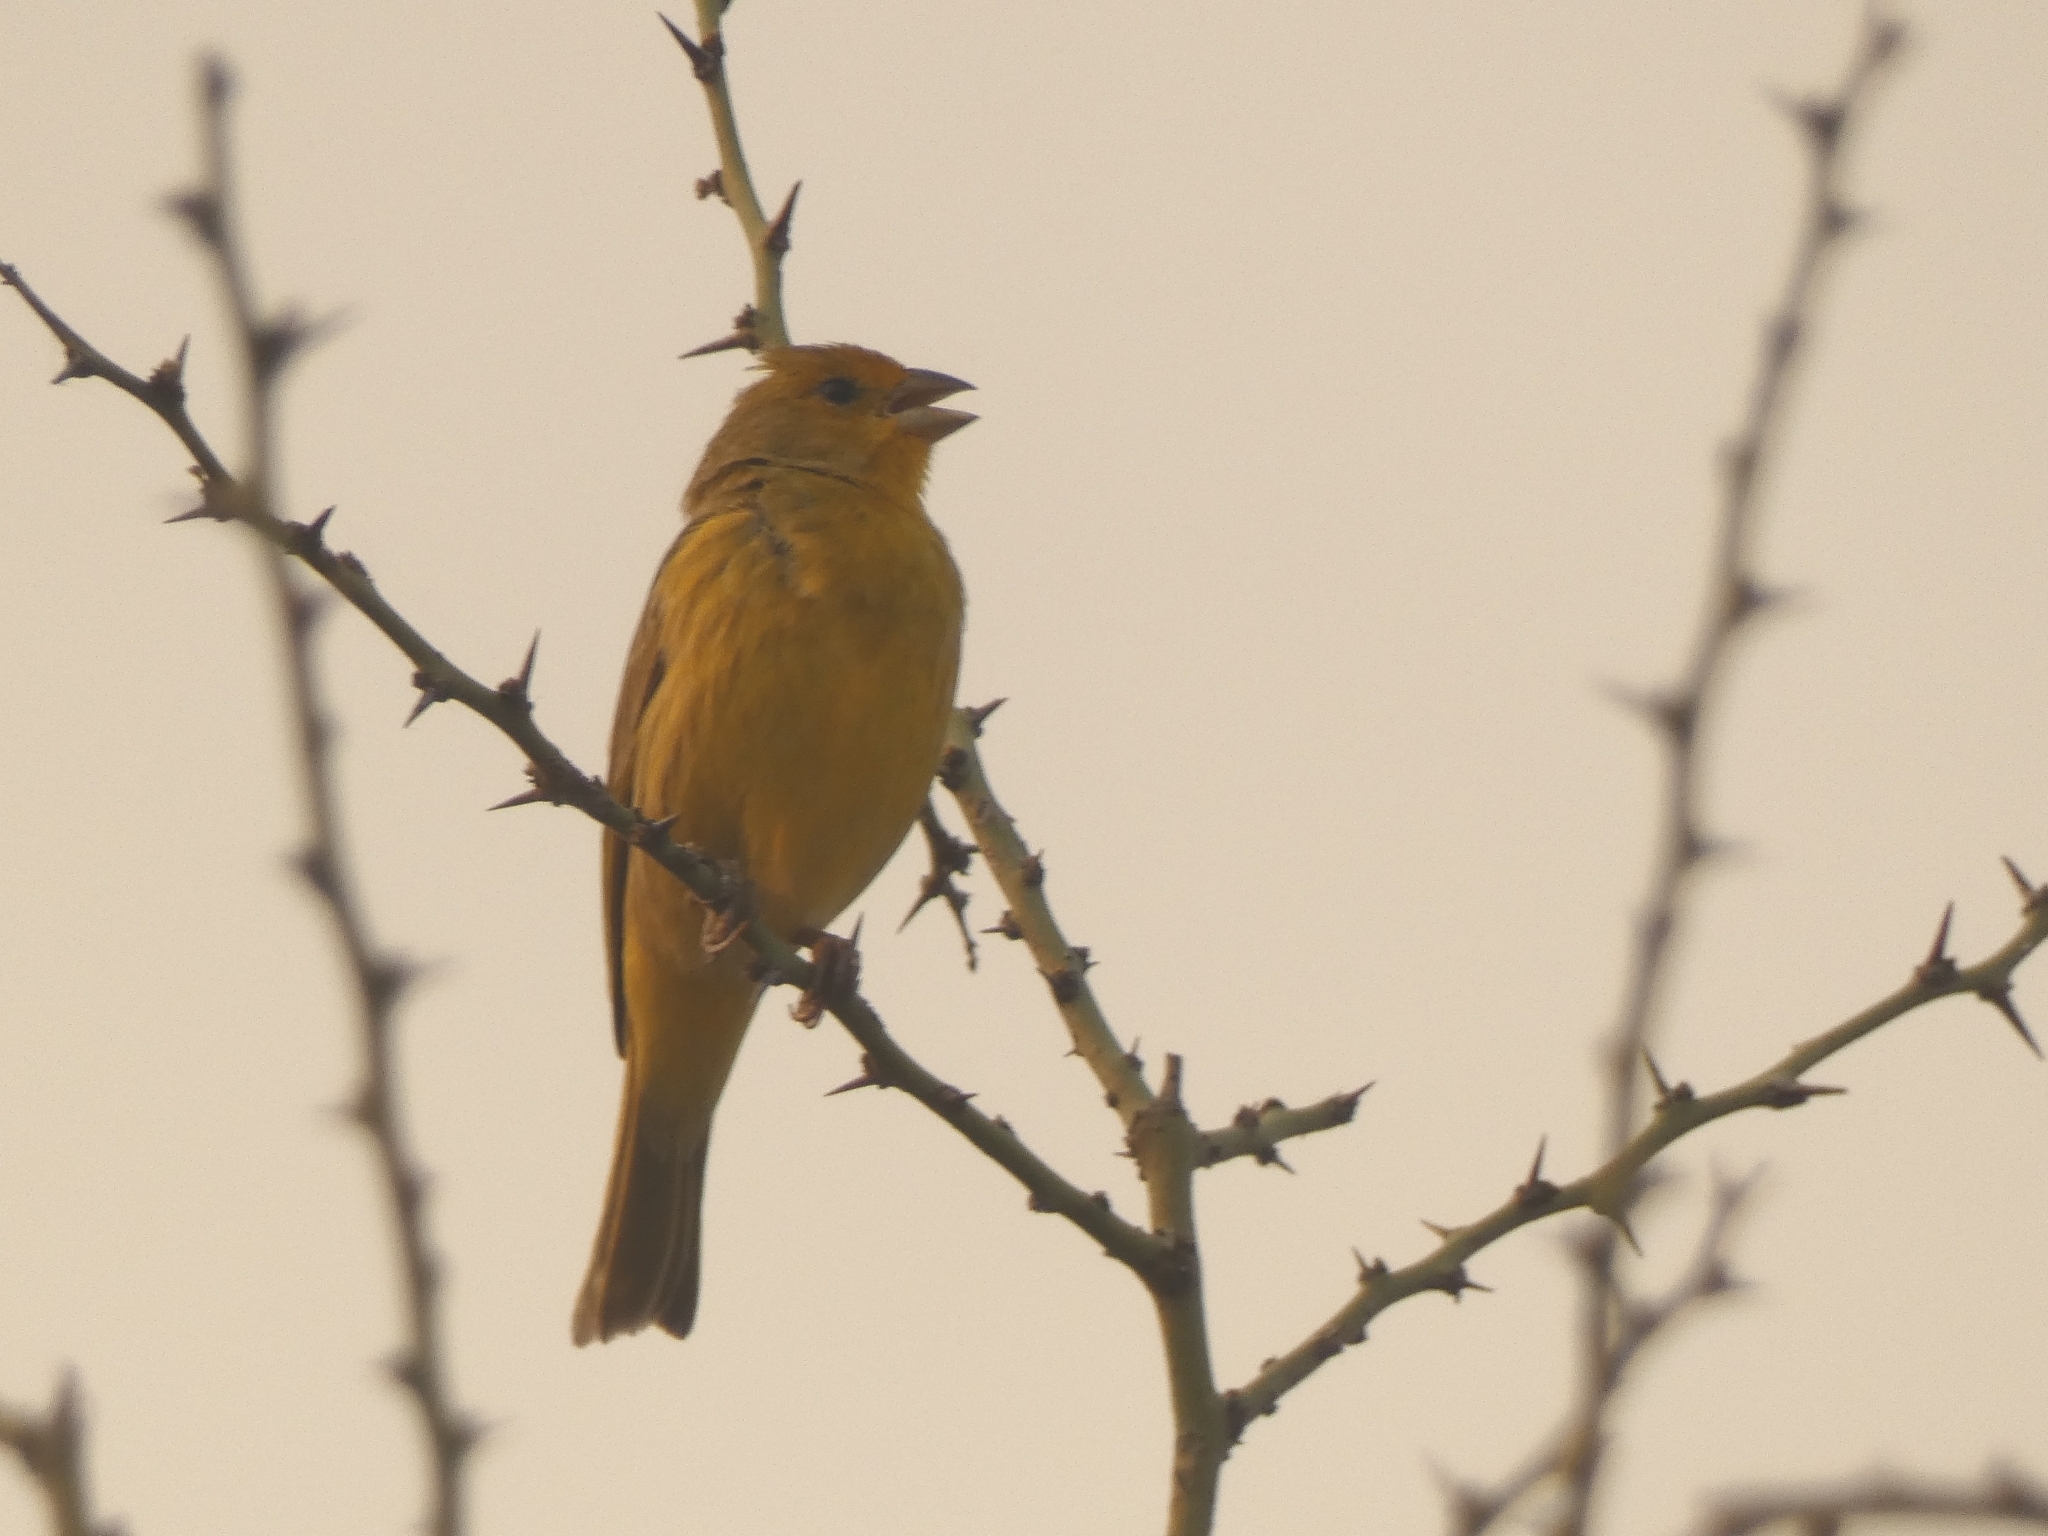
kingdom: Animalia
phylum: Chordata
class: Aves
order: Passeriformes
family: Thraupidae
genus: Sicalis
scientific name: Sicalis flaveola
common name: Saffron finch
